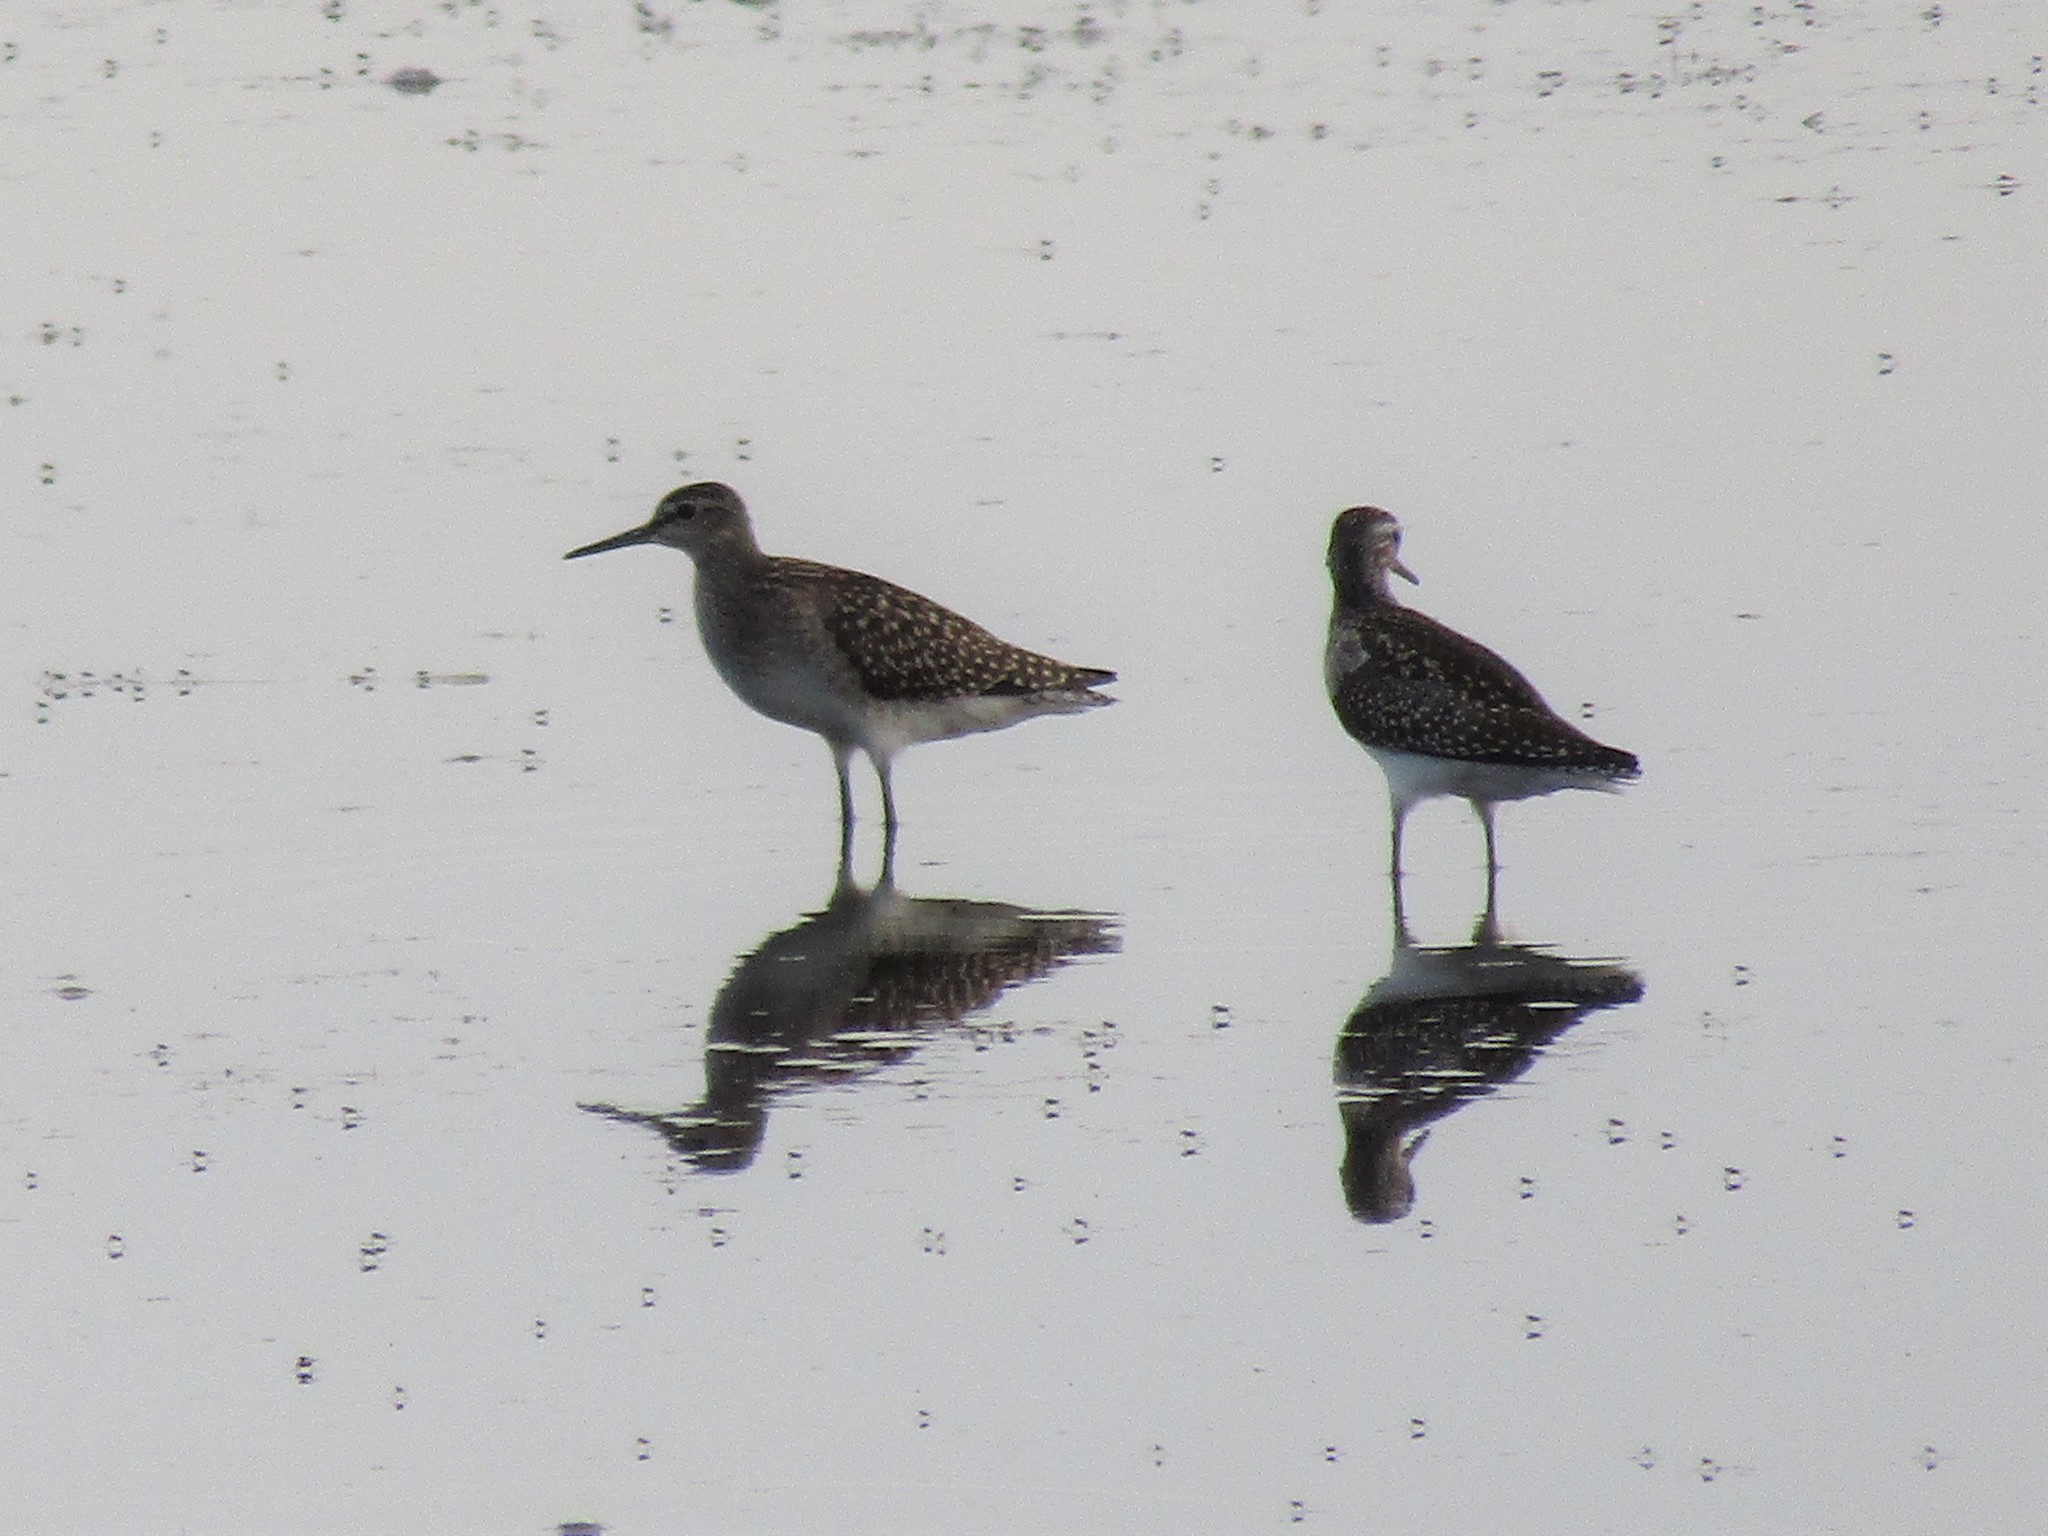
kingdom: Animalia
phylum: Chordata
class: Aves
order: Charadriiformes
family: Scolopacidae
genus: Tringa
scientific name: Tringa glareola
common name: Wood sandpiper
